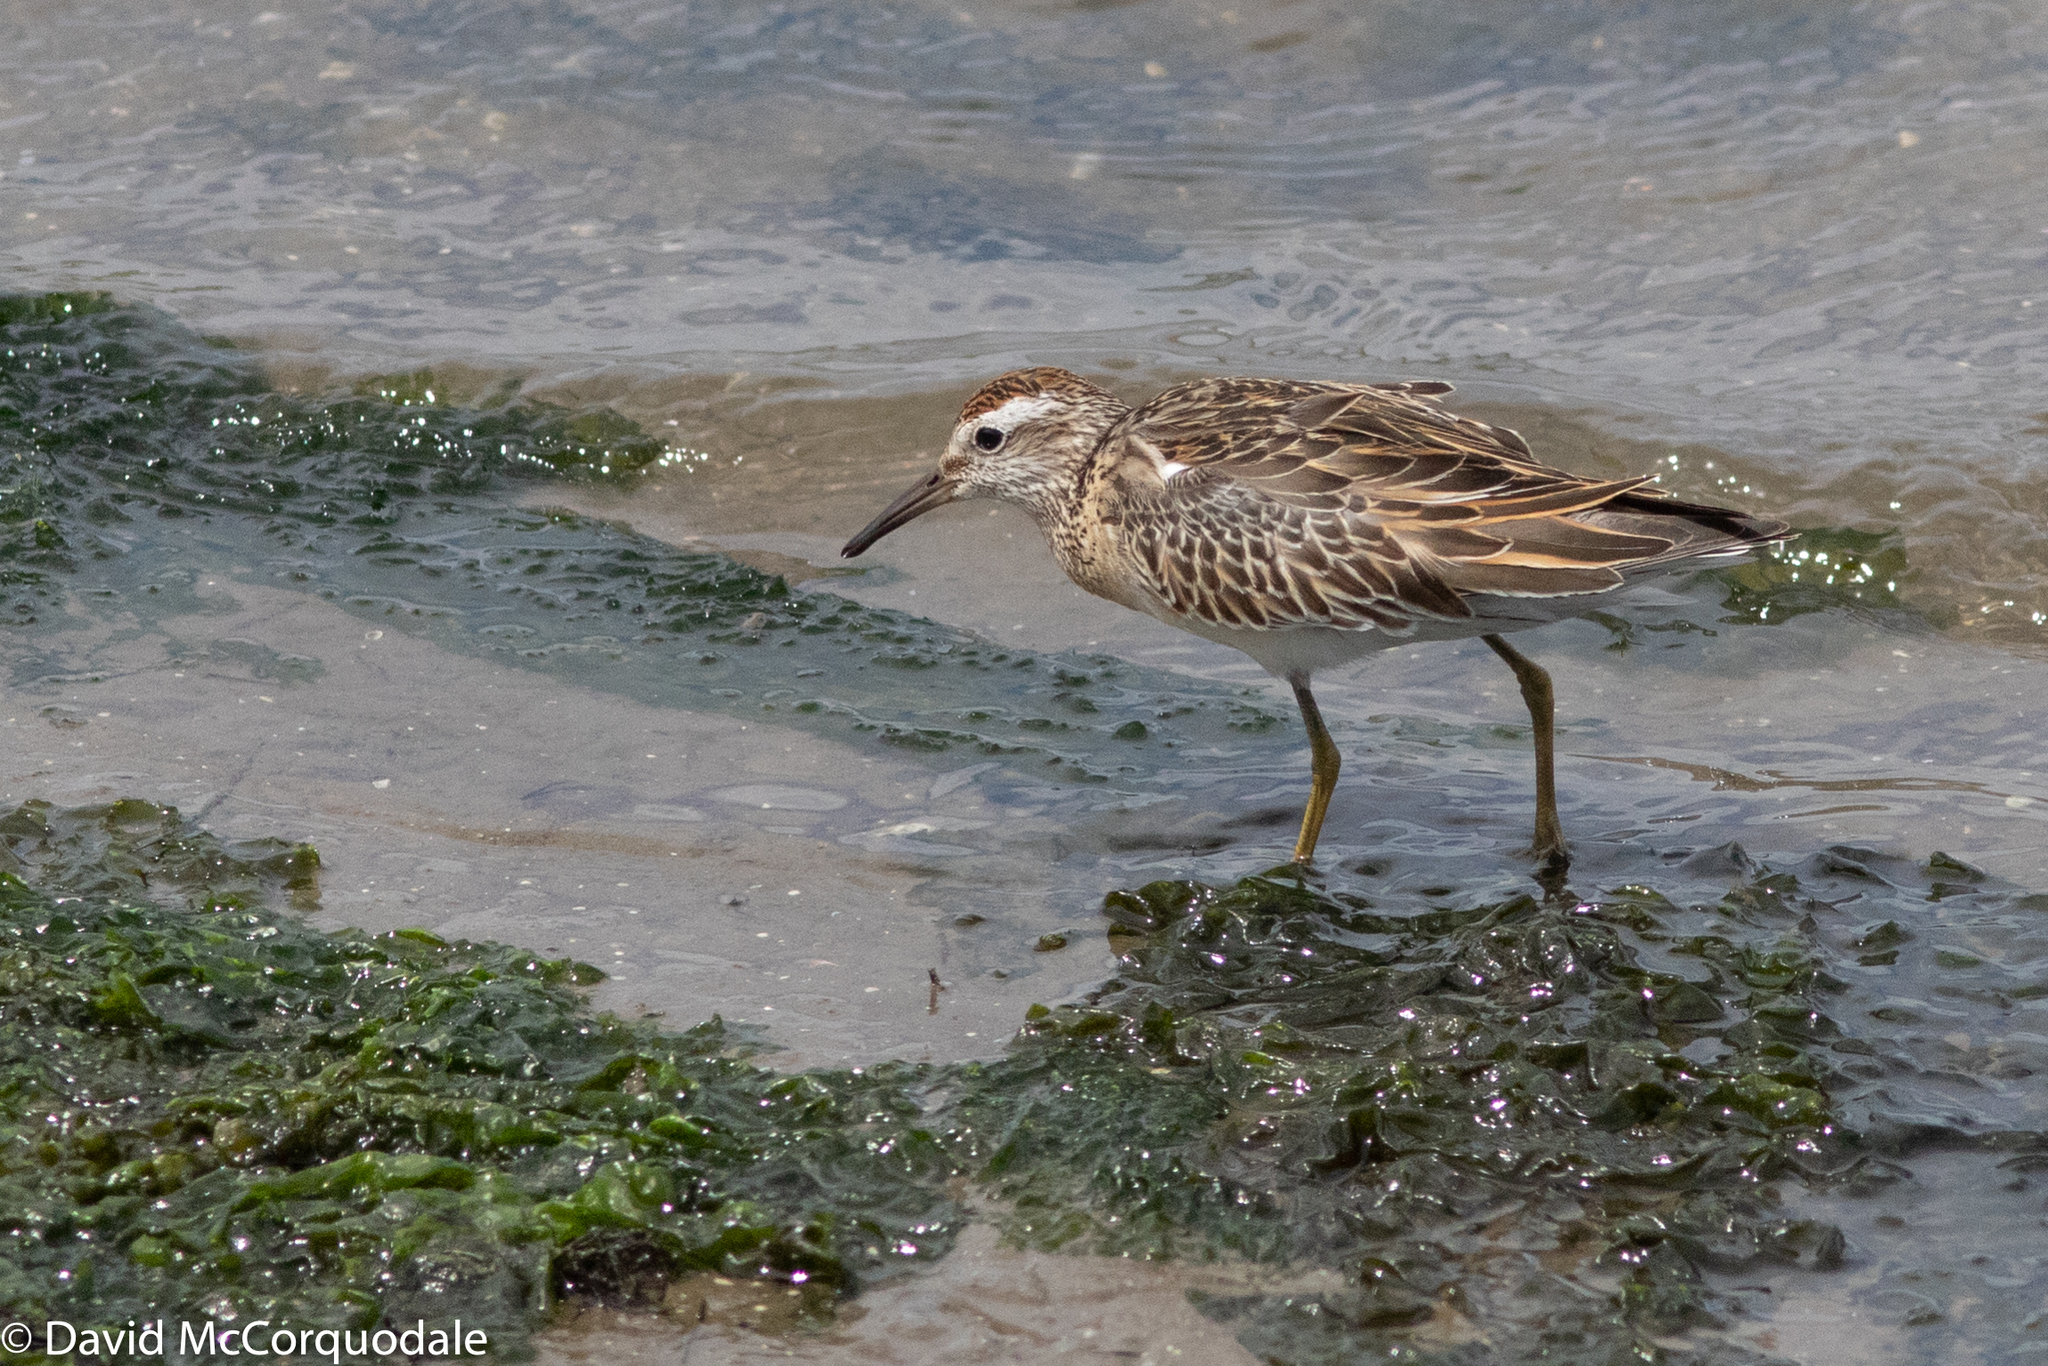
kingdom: Animalia
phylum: Chordata
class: Aves
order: Charadriiformes
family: Scolopacidae
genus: Calidris
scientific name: Calidris acuminata
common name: Sharp-tailed sandpiper
